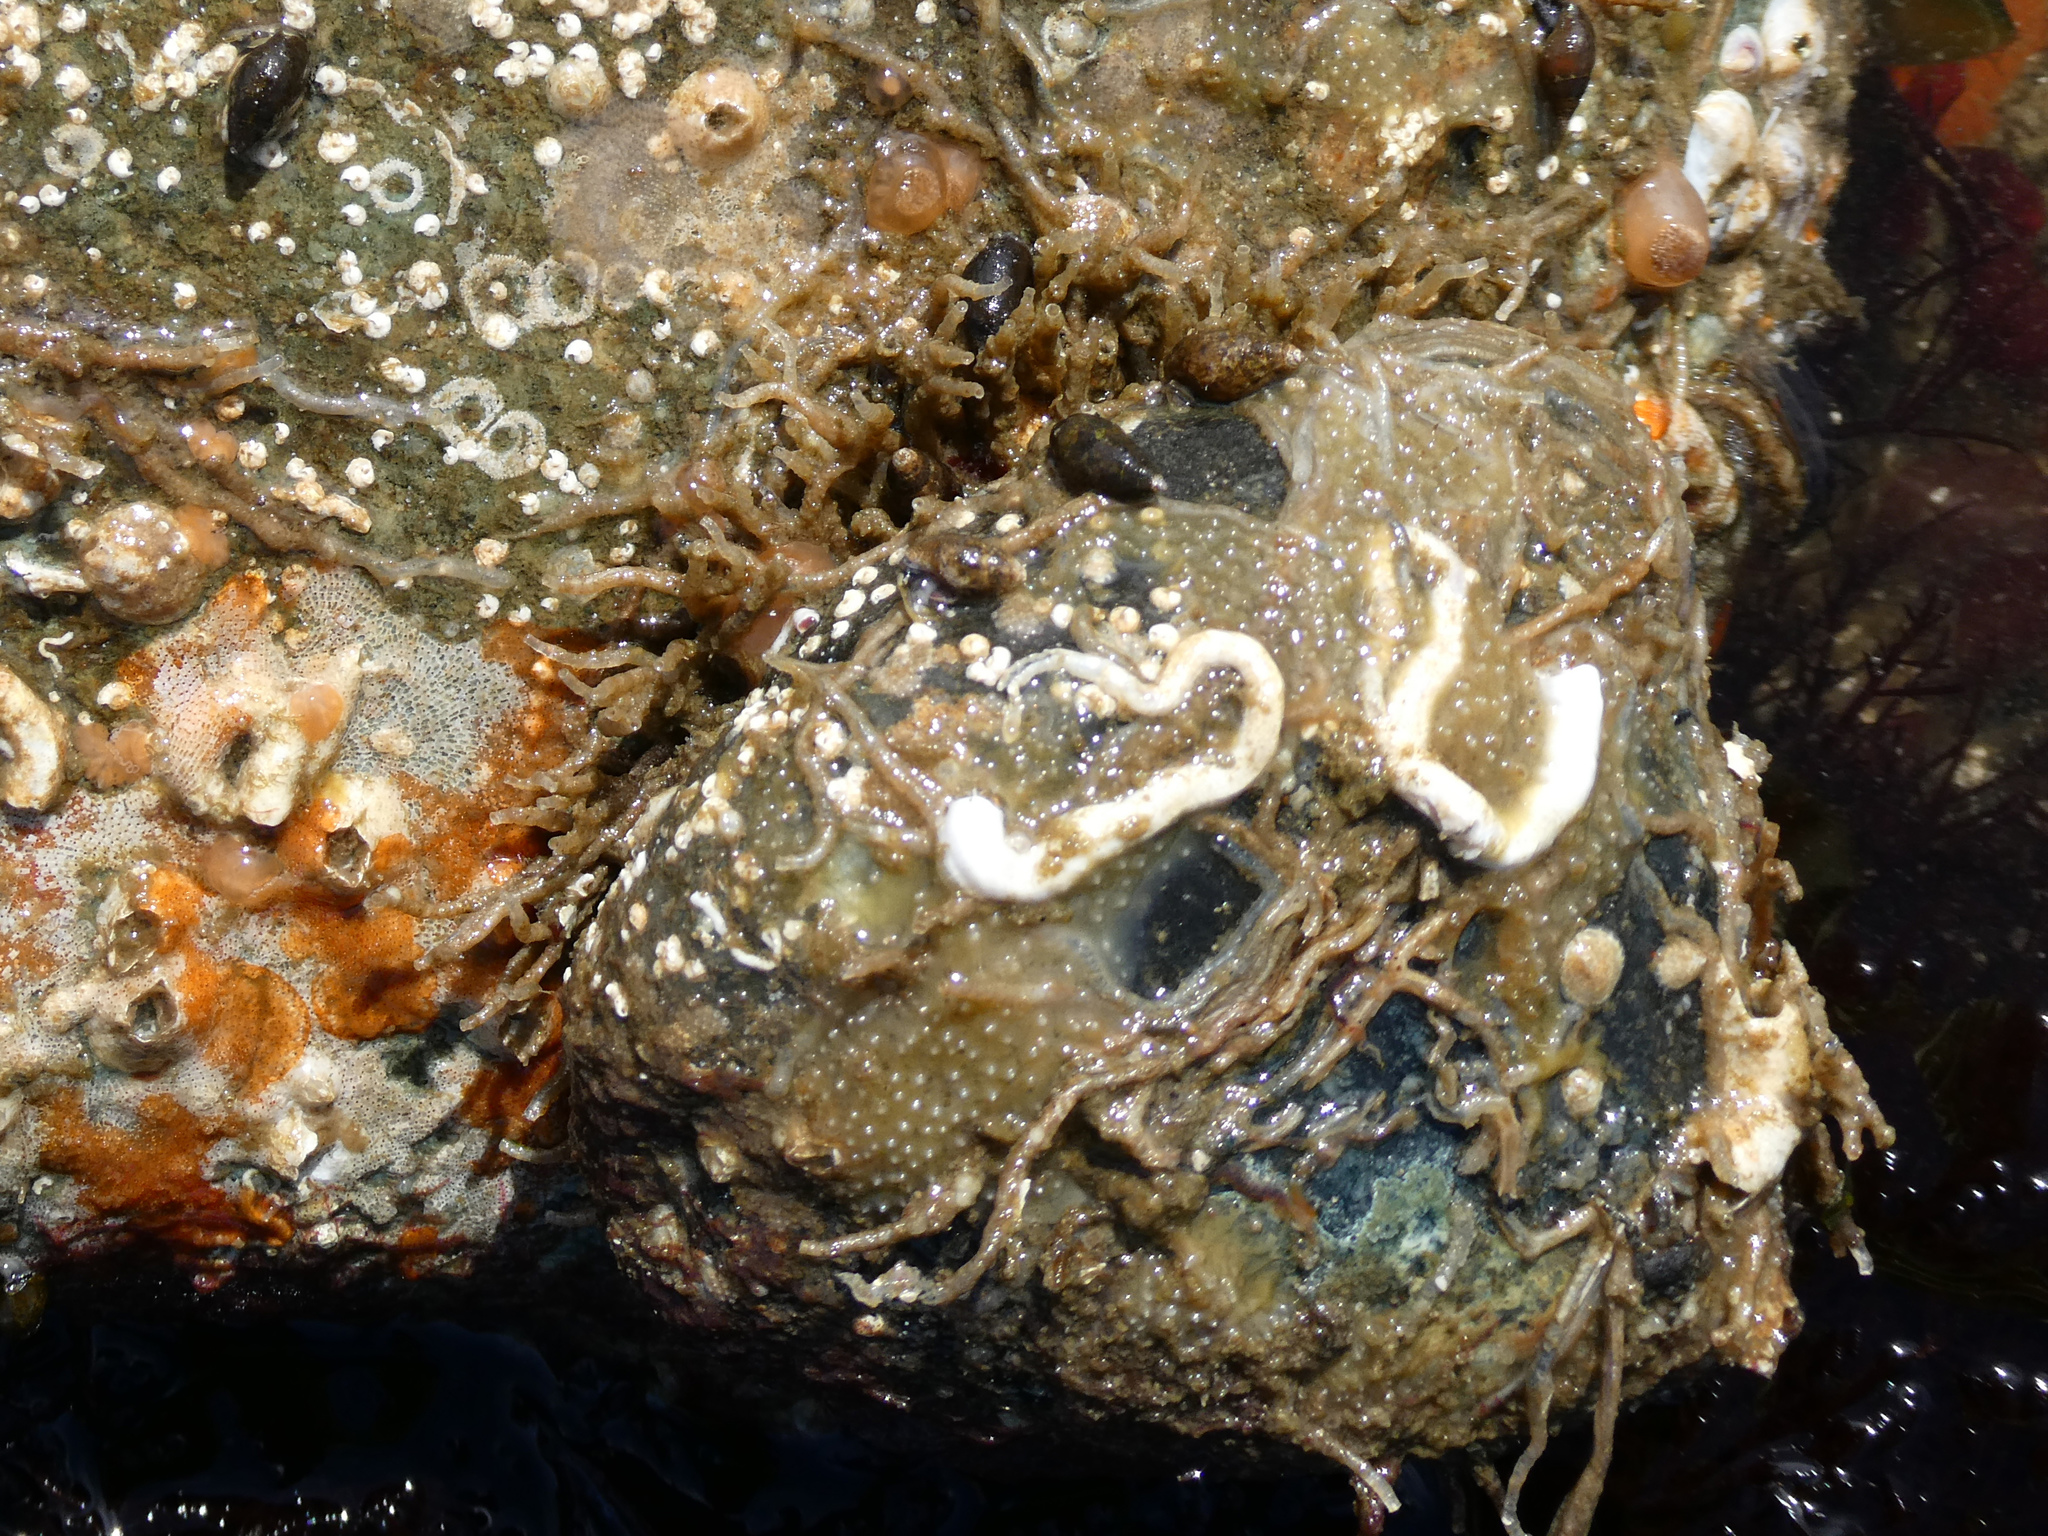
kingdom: Animalia
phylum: Annelida
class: Polychaeta
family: Chaetopteridae
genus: Phyllochaetopterus
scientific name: Phyllochaetopterus prolifica
